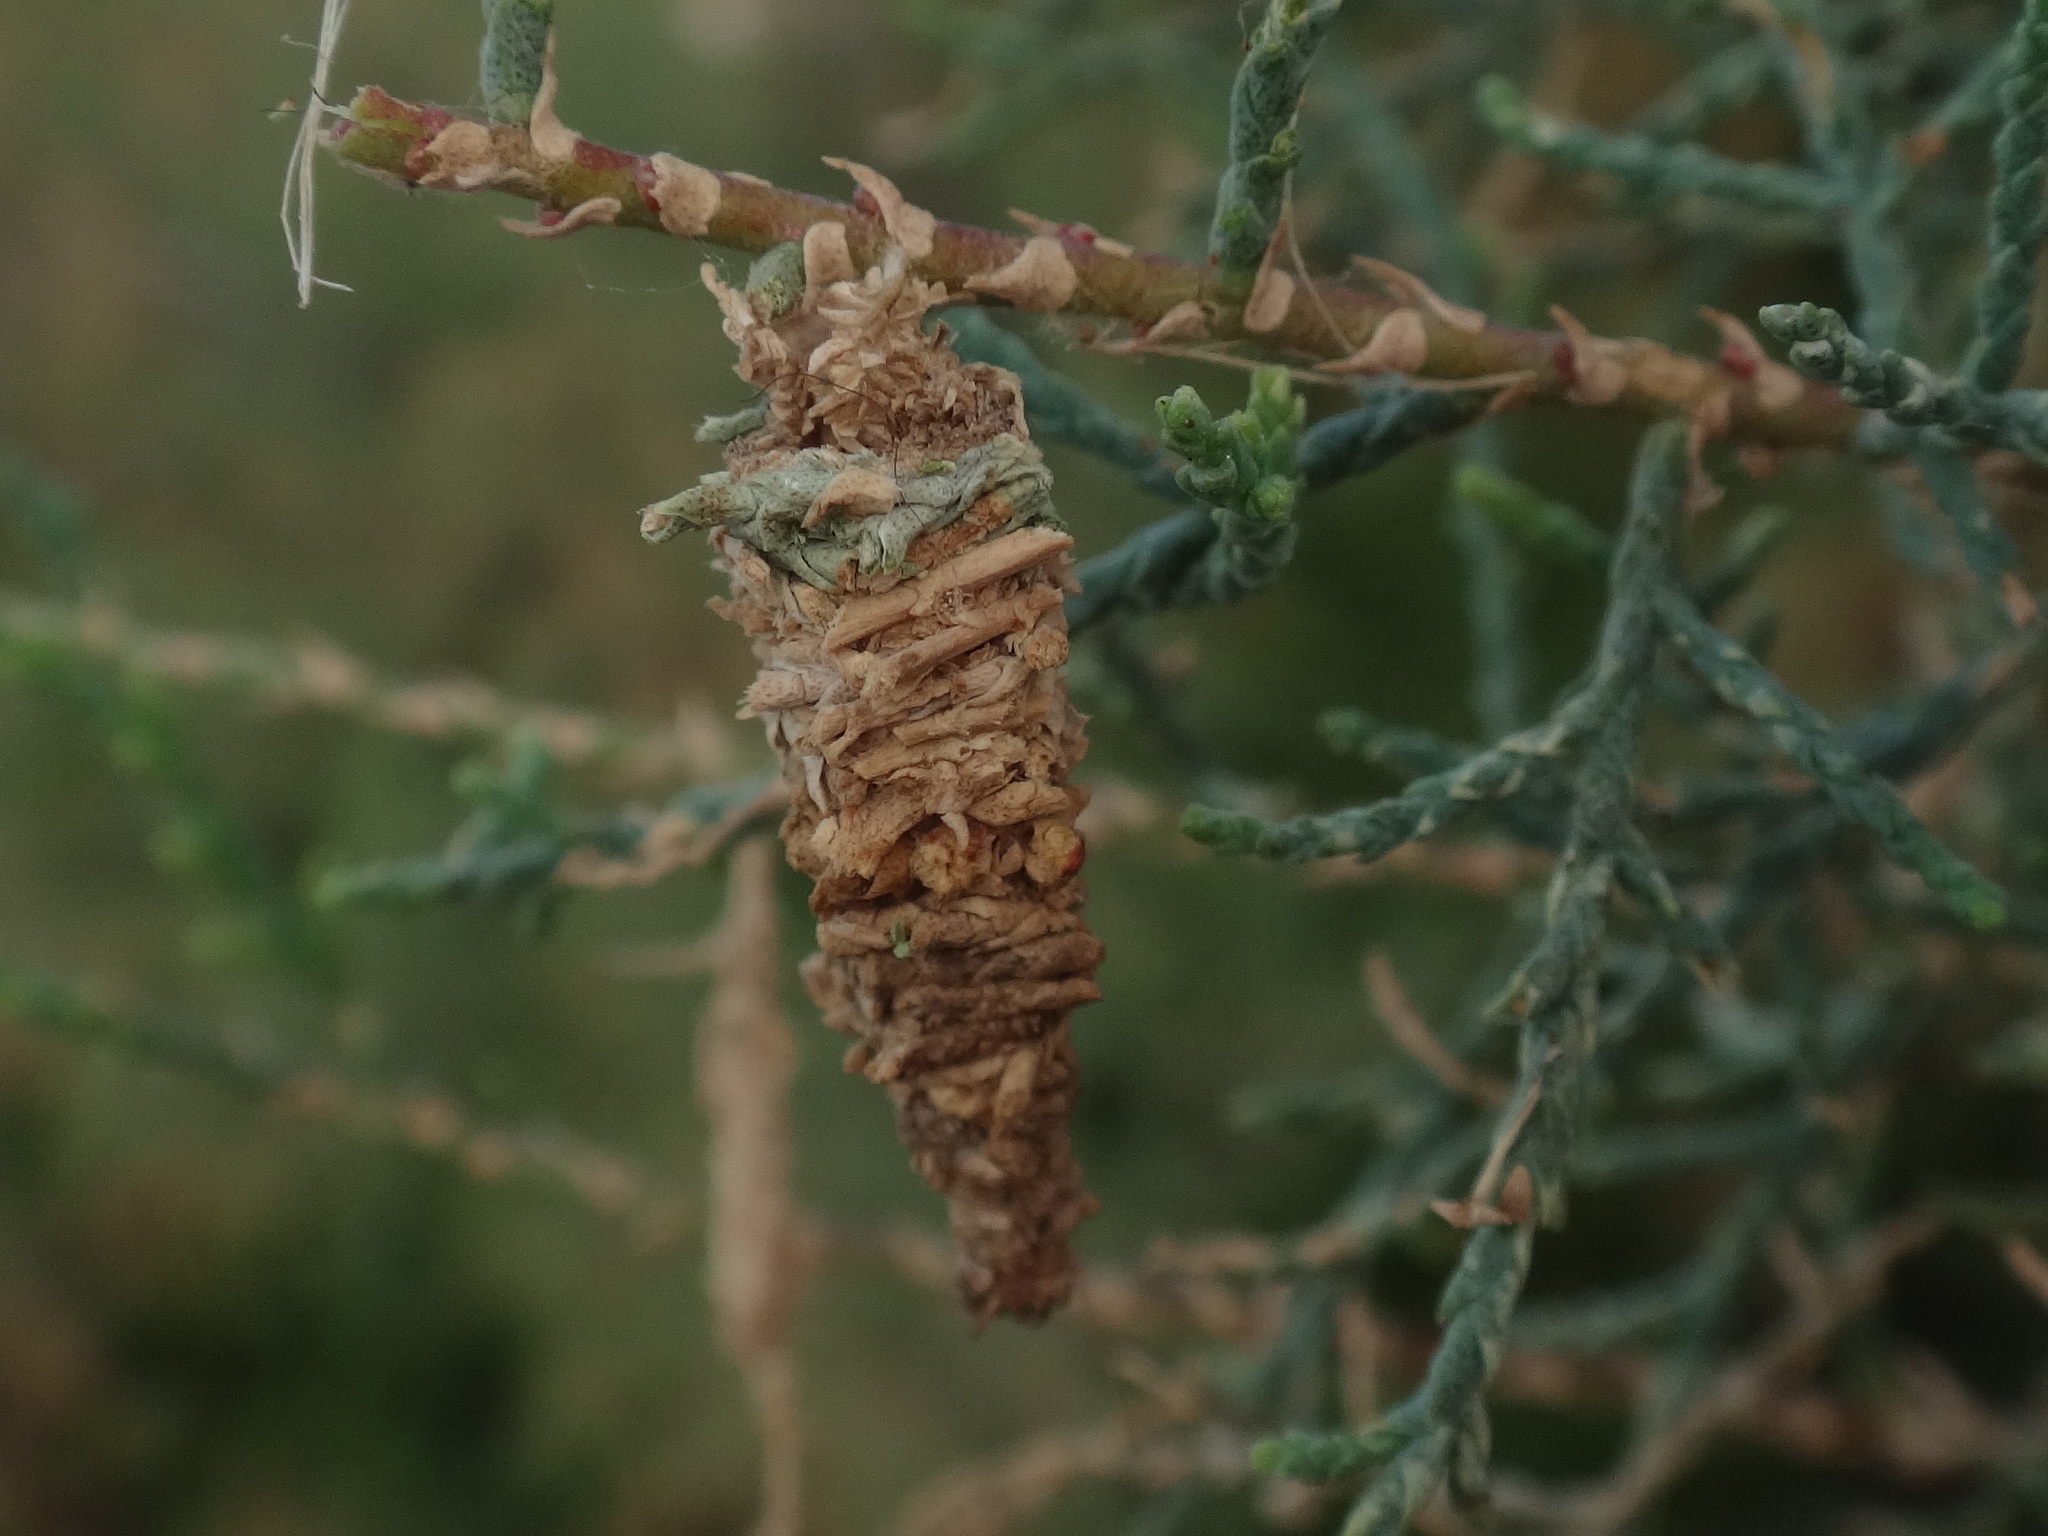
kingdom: Animalia
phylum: Arthropoda
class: Insecta
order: Lepidoptera
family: Psychidae
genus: Amicta
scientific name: Amicta cabrerai
